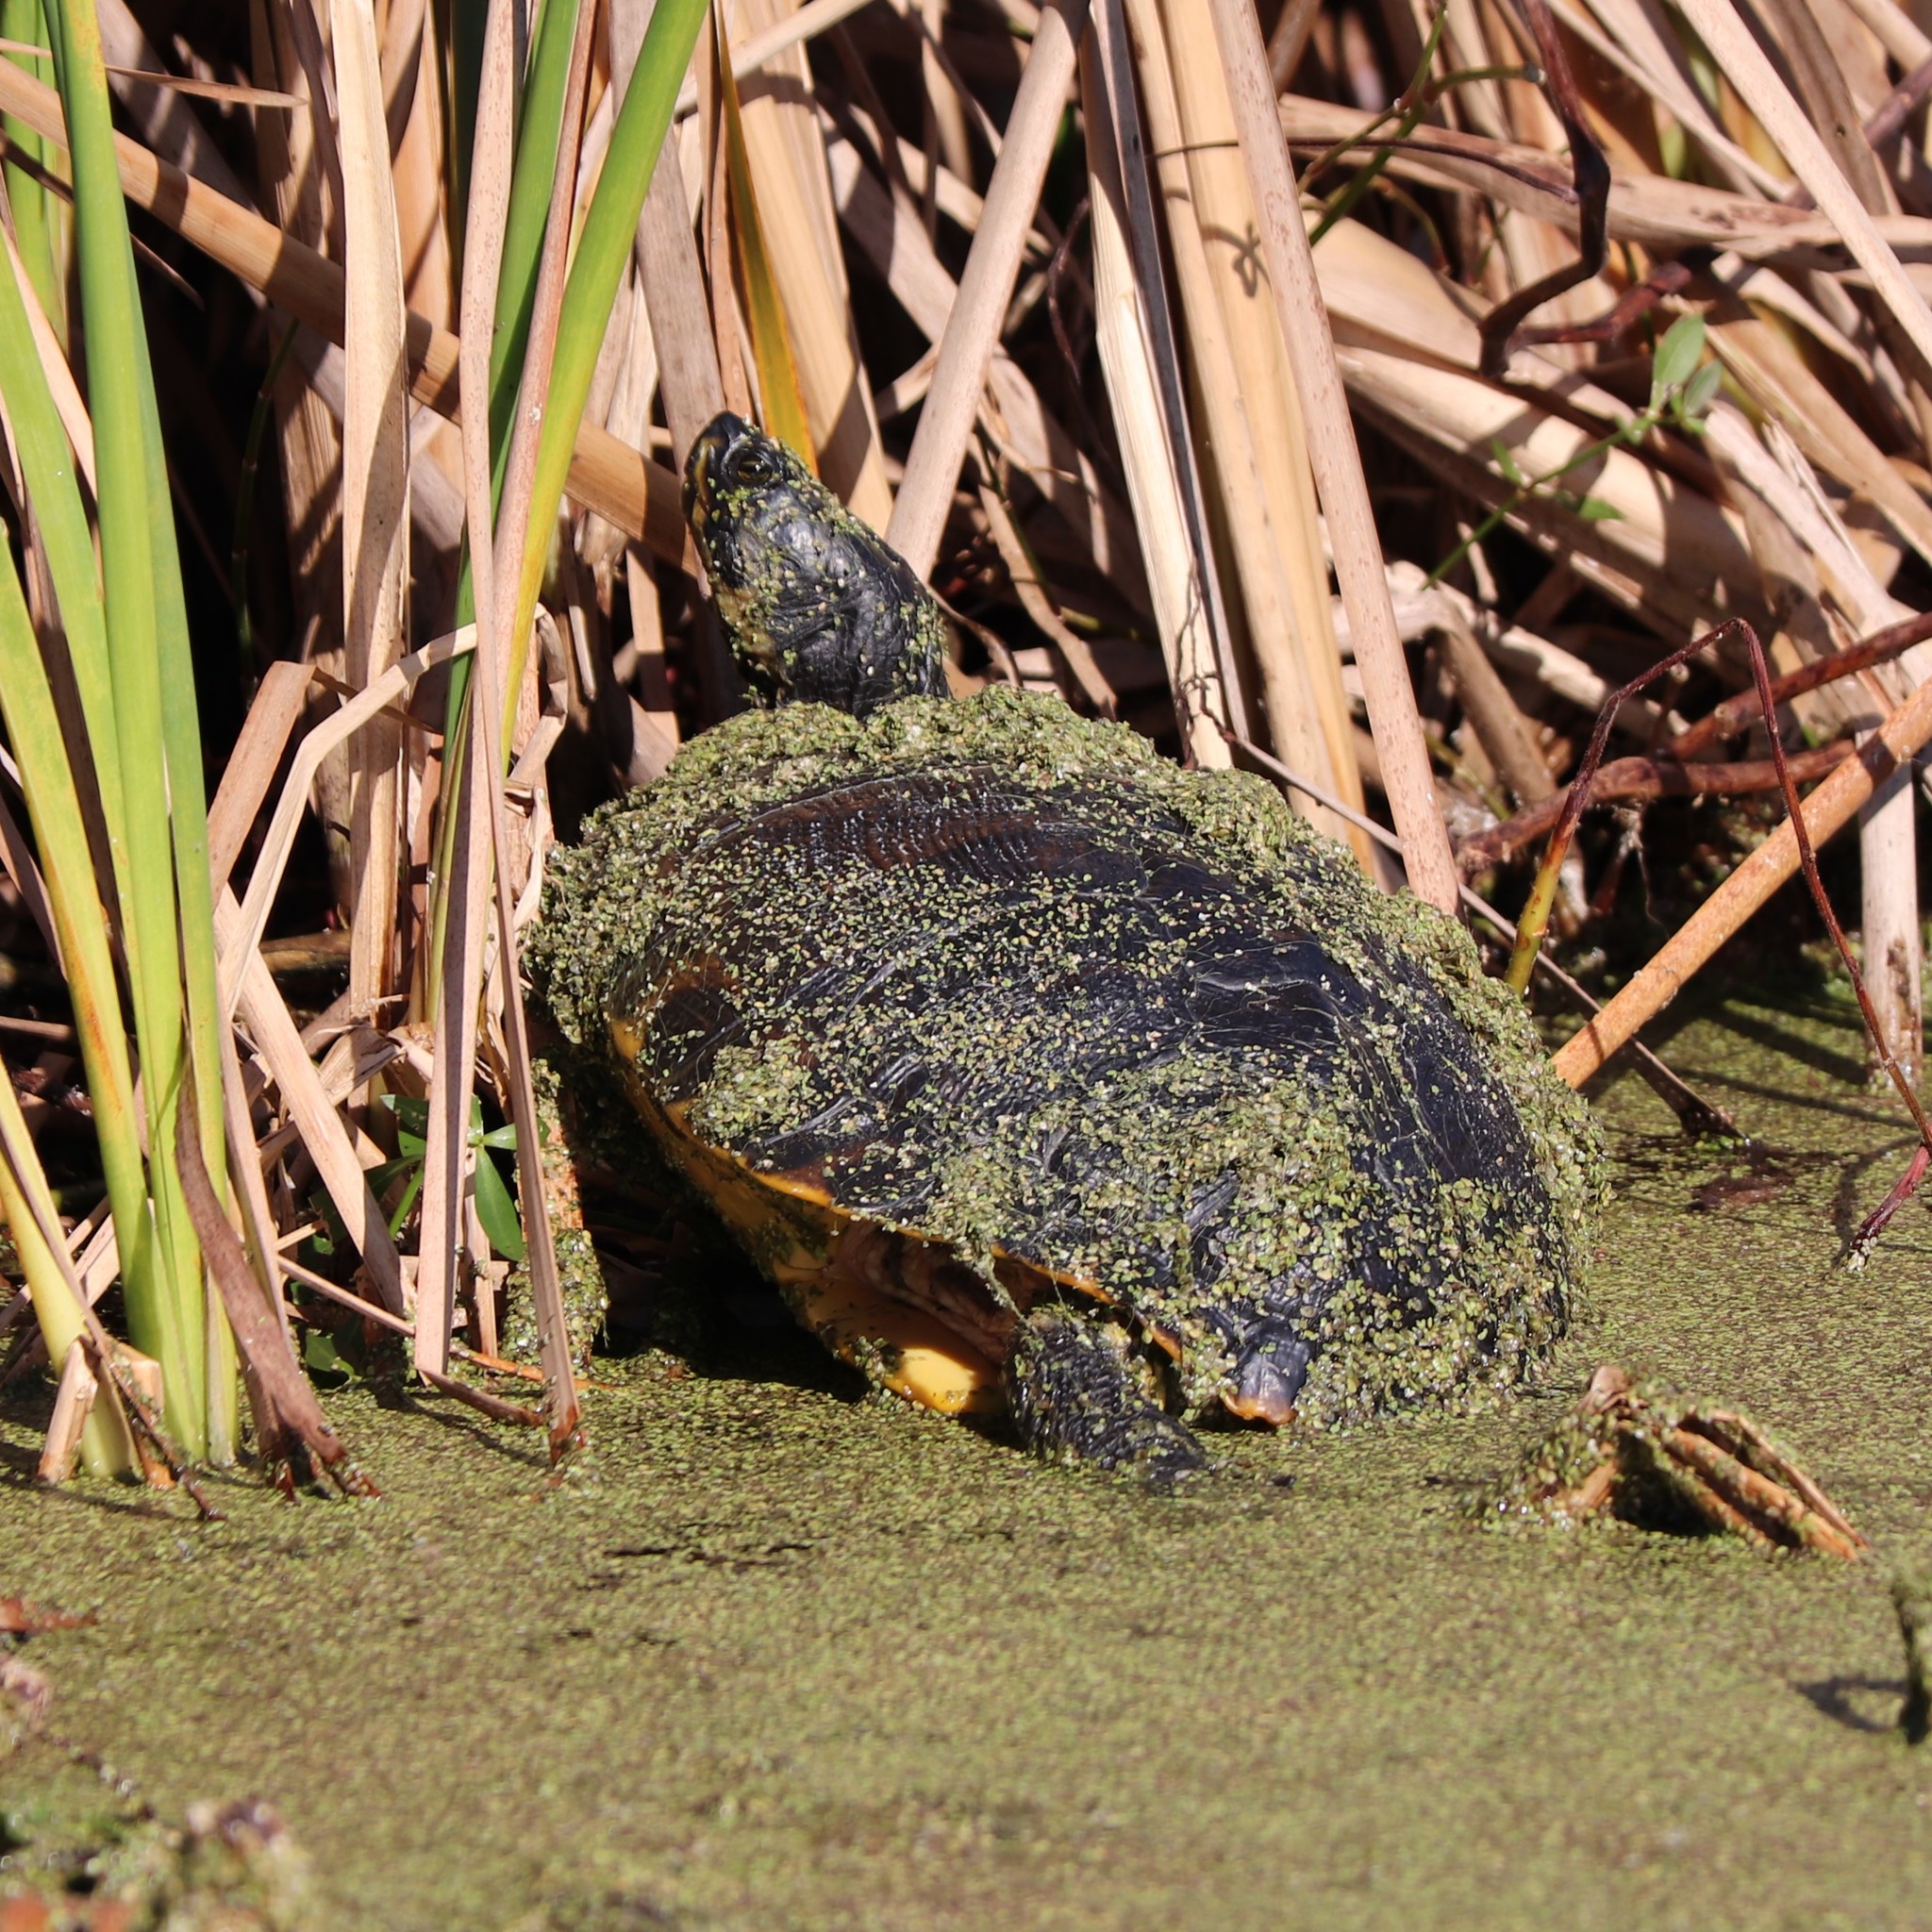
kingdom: Animalia
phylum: Chordata
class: Testudines
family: Emydidae
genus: Trachemys
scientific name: Trachemys scripta
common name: Slider
